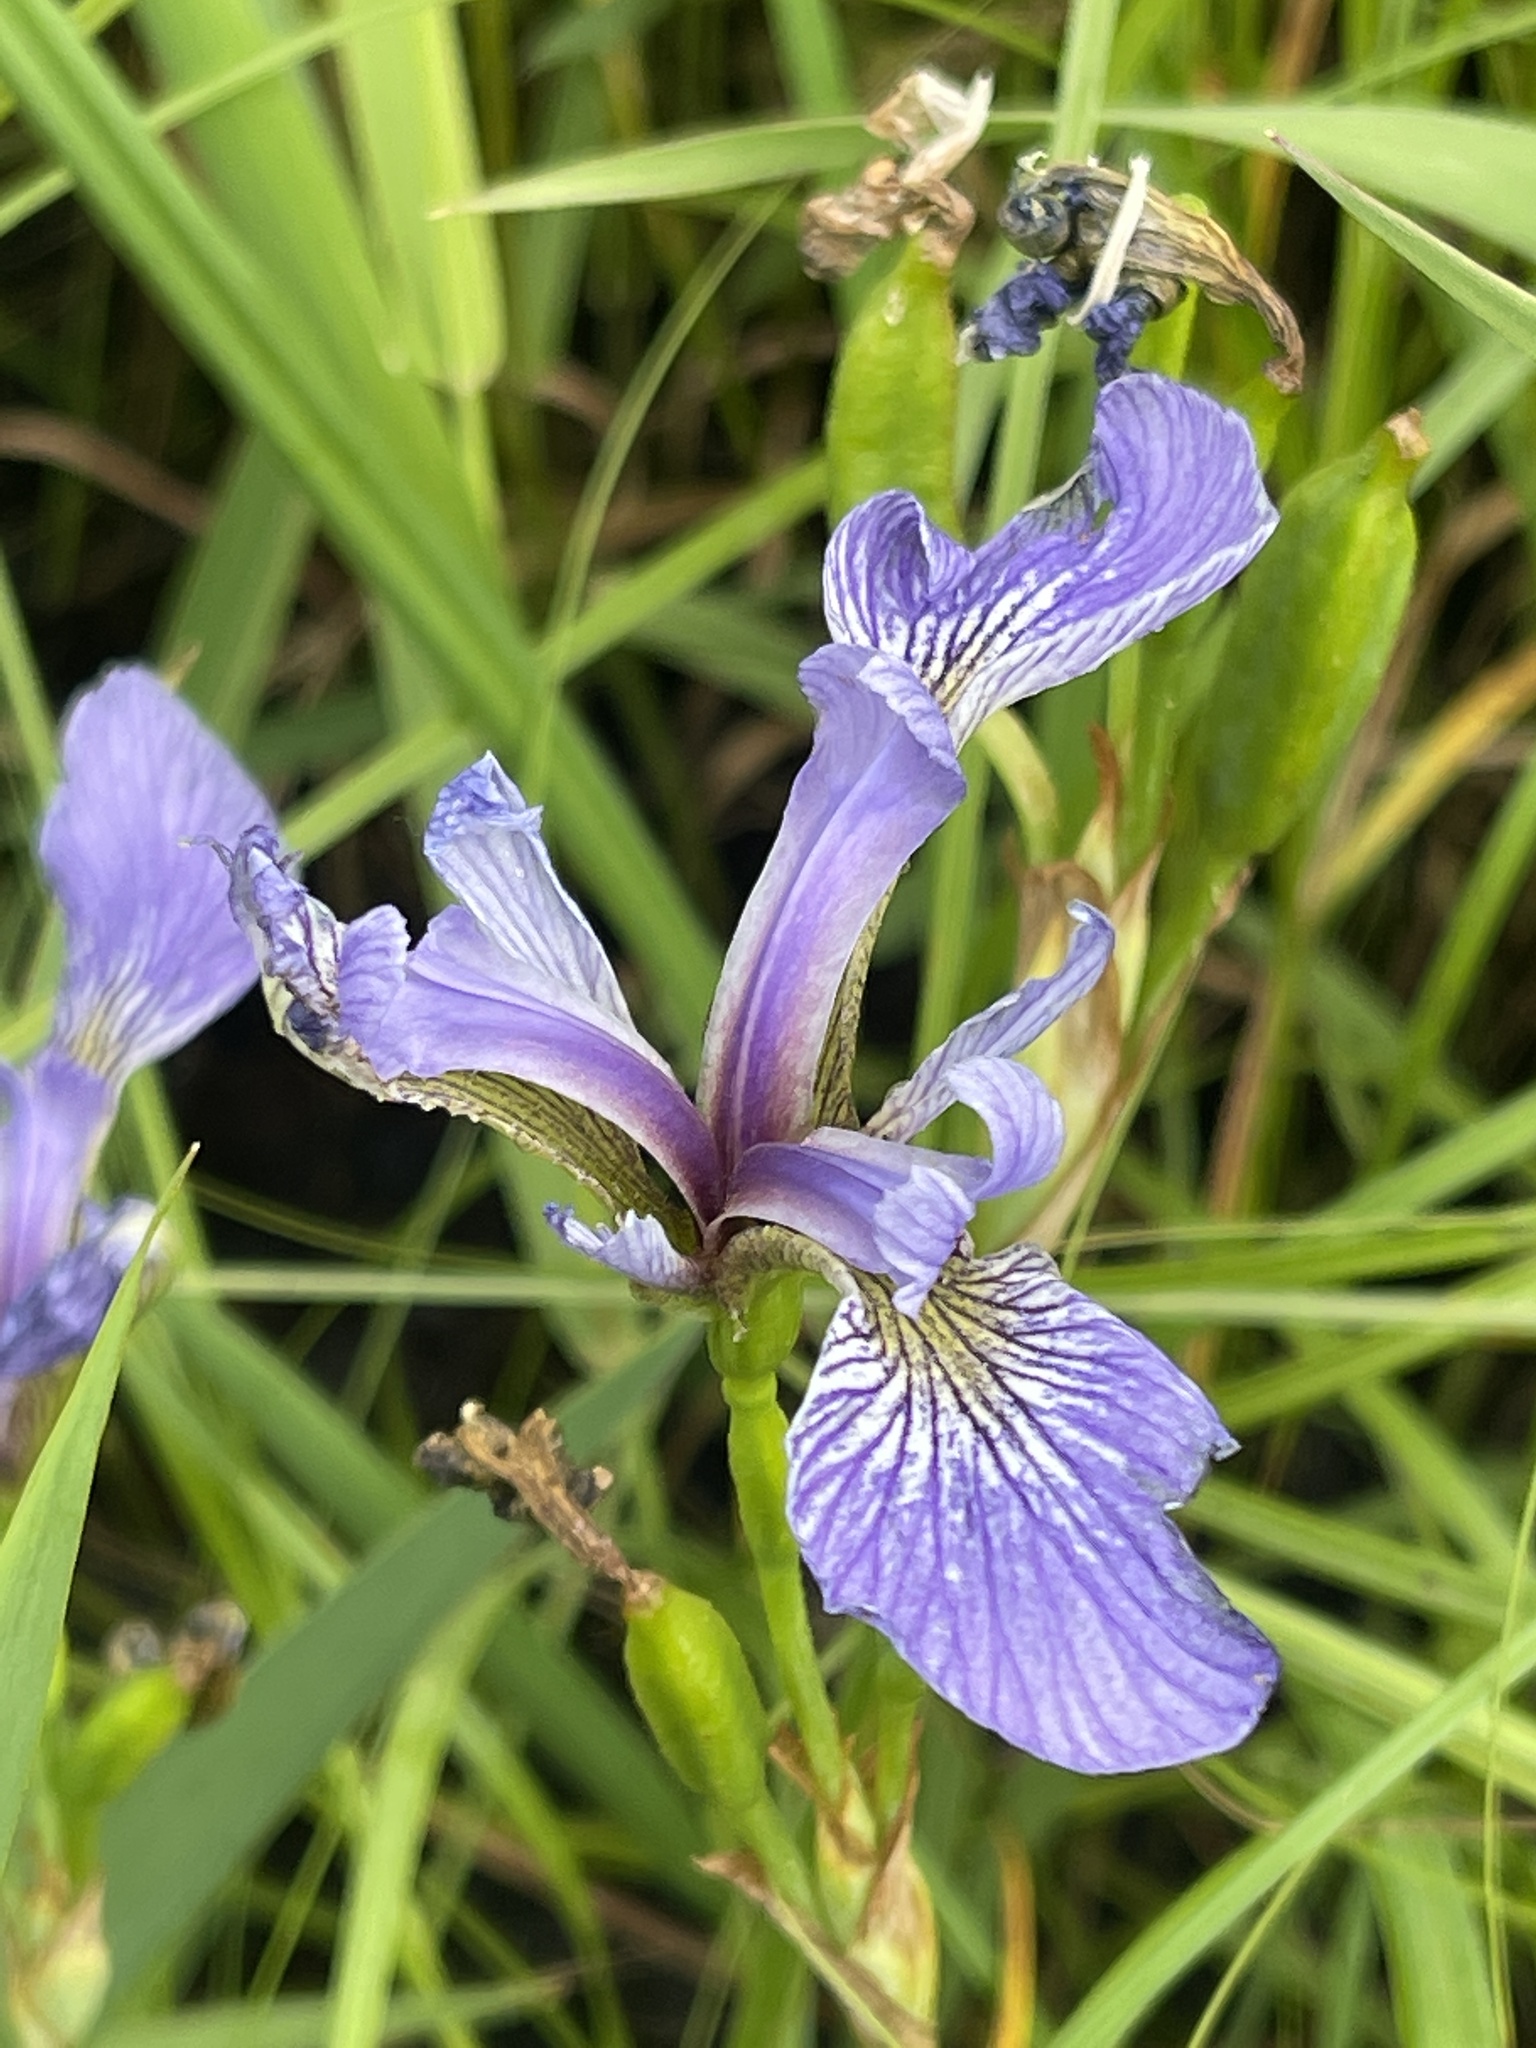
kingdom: Plantae
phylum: Tracheophyta
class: Liliopsida
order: Asparagales
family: Iridaceae
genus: Iris
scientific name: Iris versicolor
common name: Purple iris
